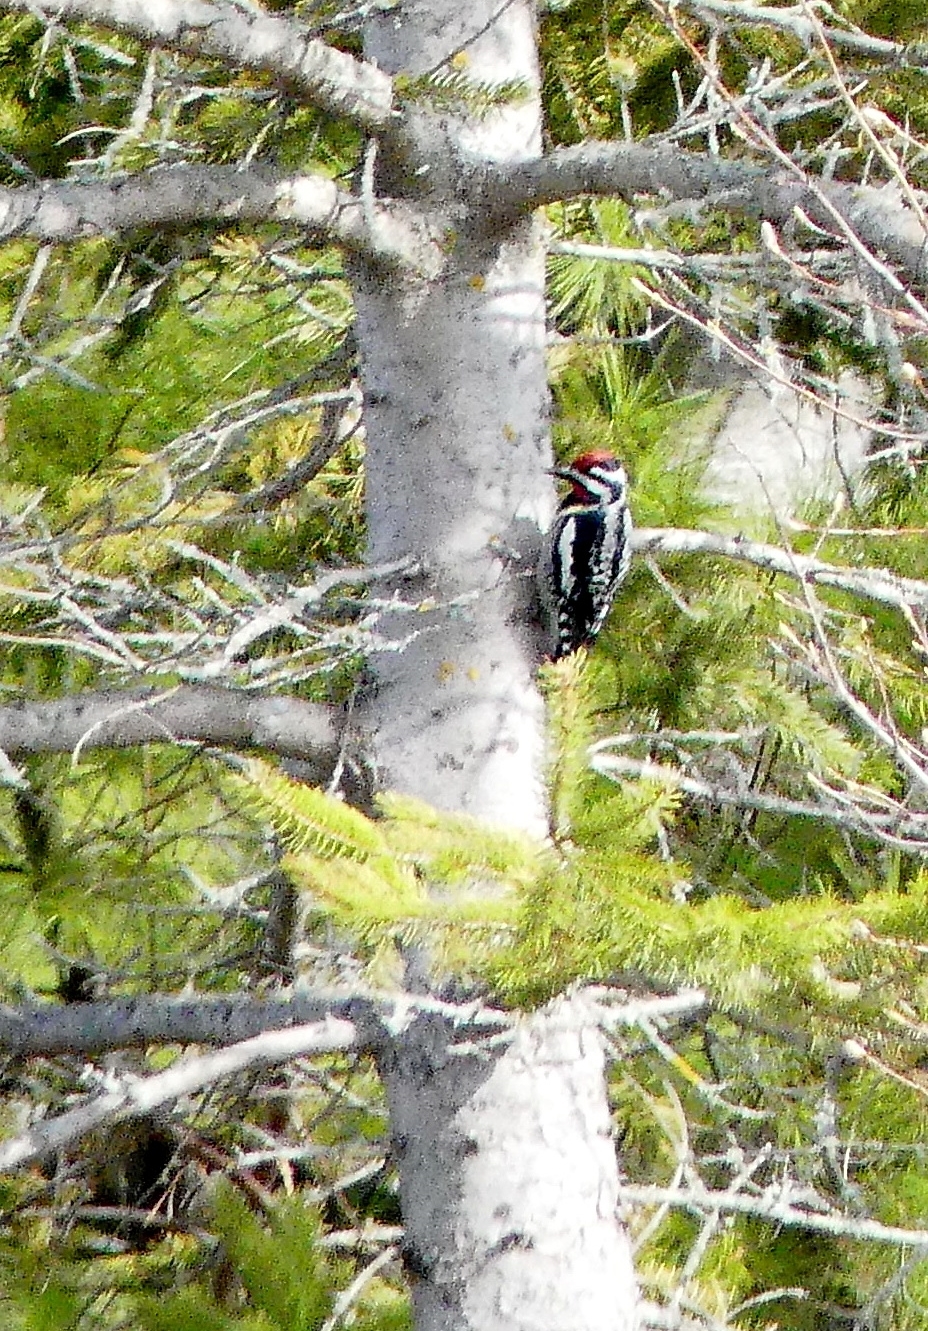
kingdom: Animalia
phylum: Chordata
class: Aves
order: Piciformes
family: Picidae
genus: Sphyrapicus
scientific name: Sphyrapicus varius
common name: Yellow-bellied sapsucker
